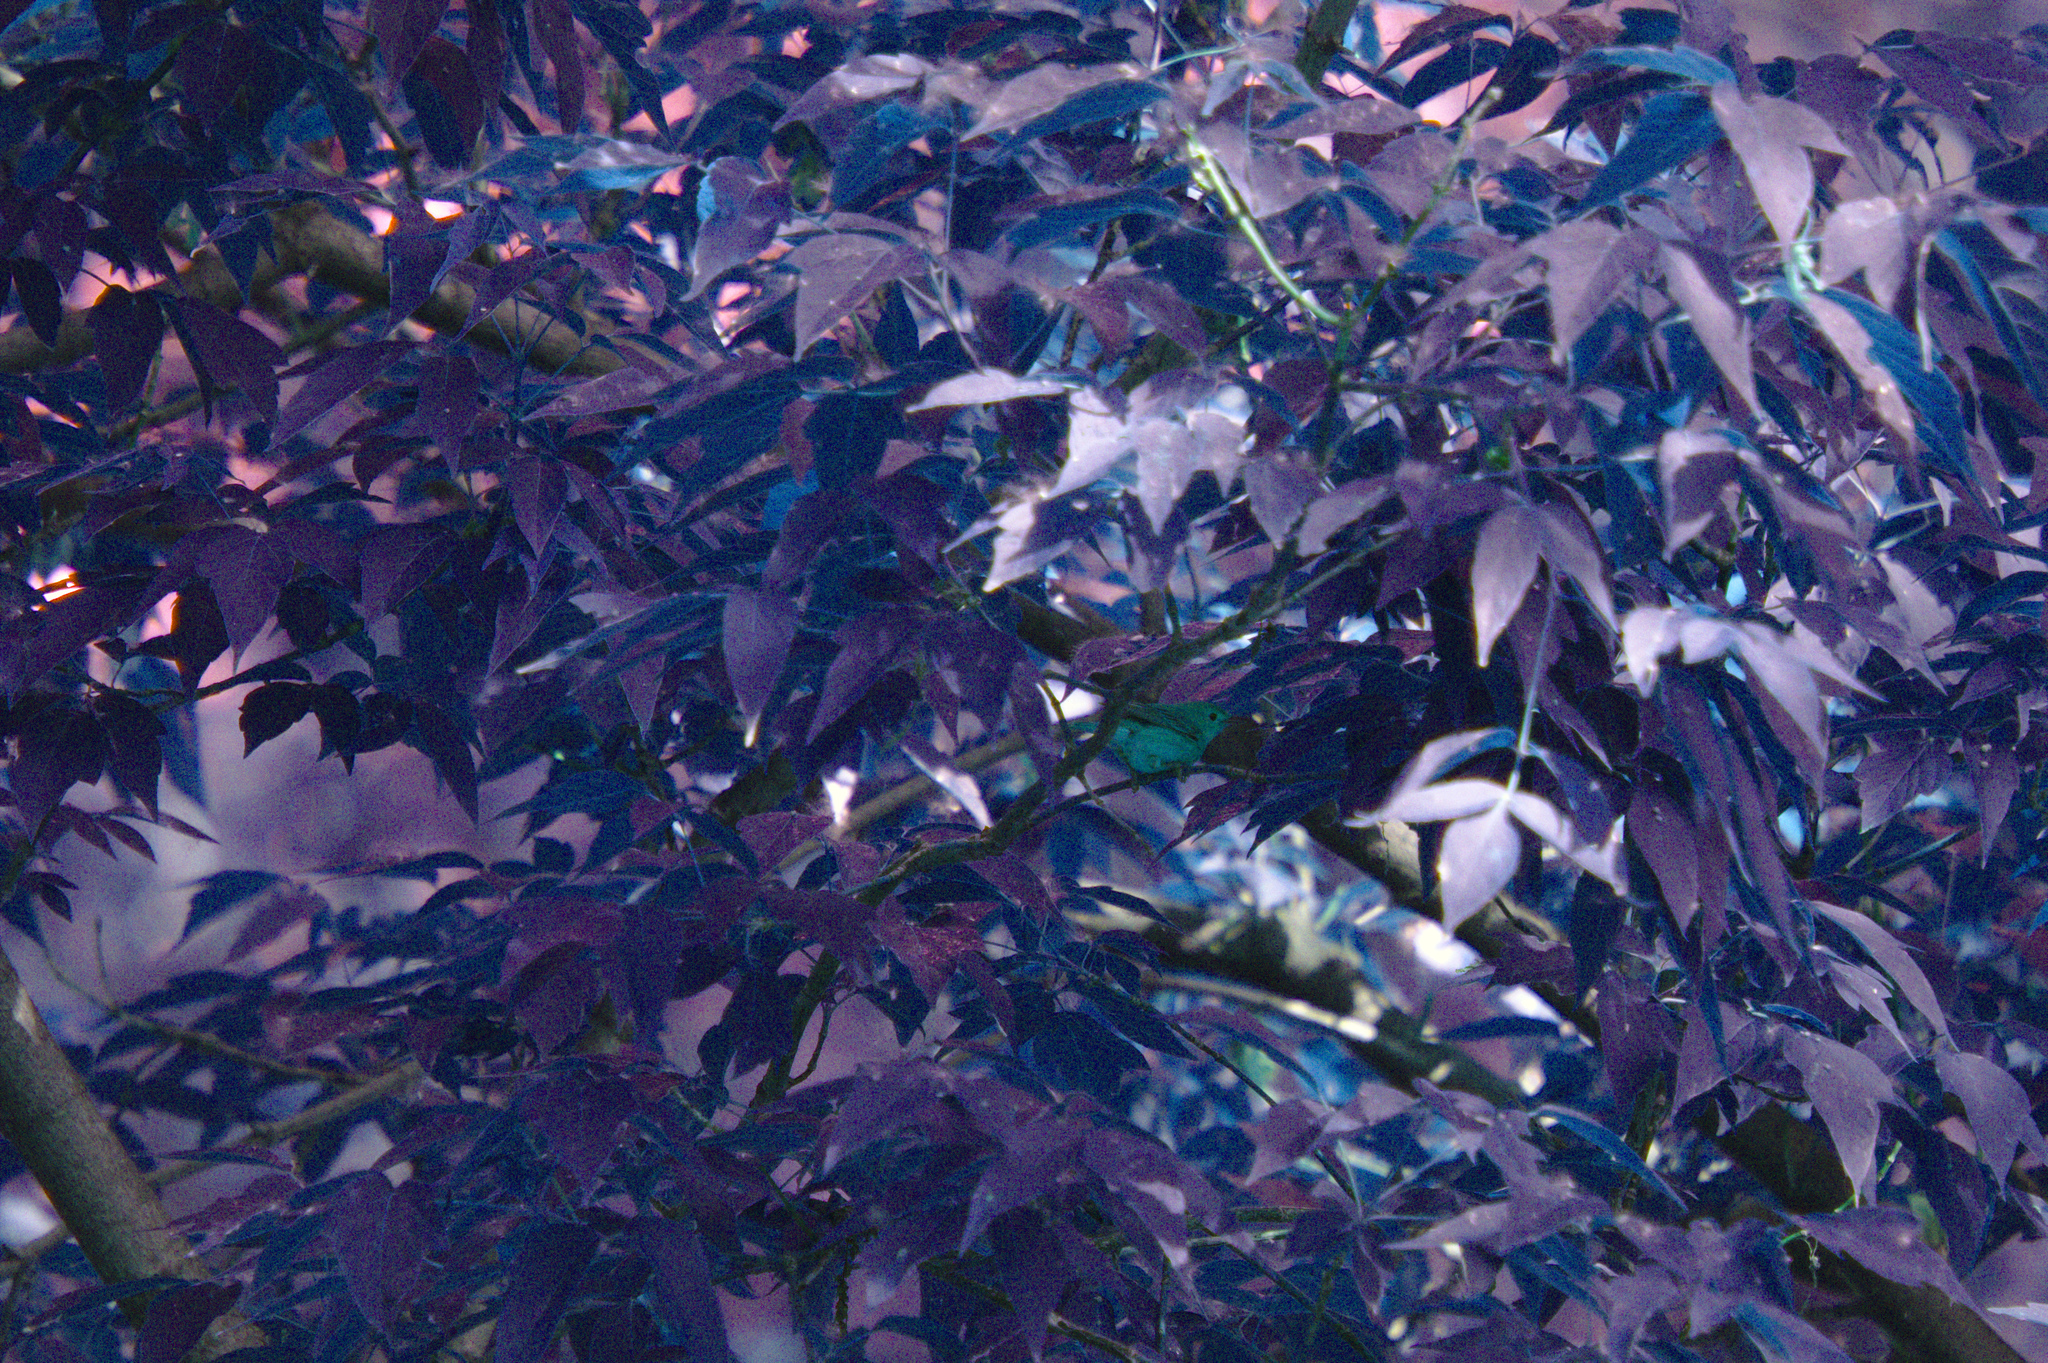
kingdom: Plantae
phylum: Tracheophyta
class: Magnoliopsida
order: Sapindales
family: Sapindaceae
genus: Acer
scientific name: Acer negundo
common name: Ashleaf maple
